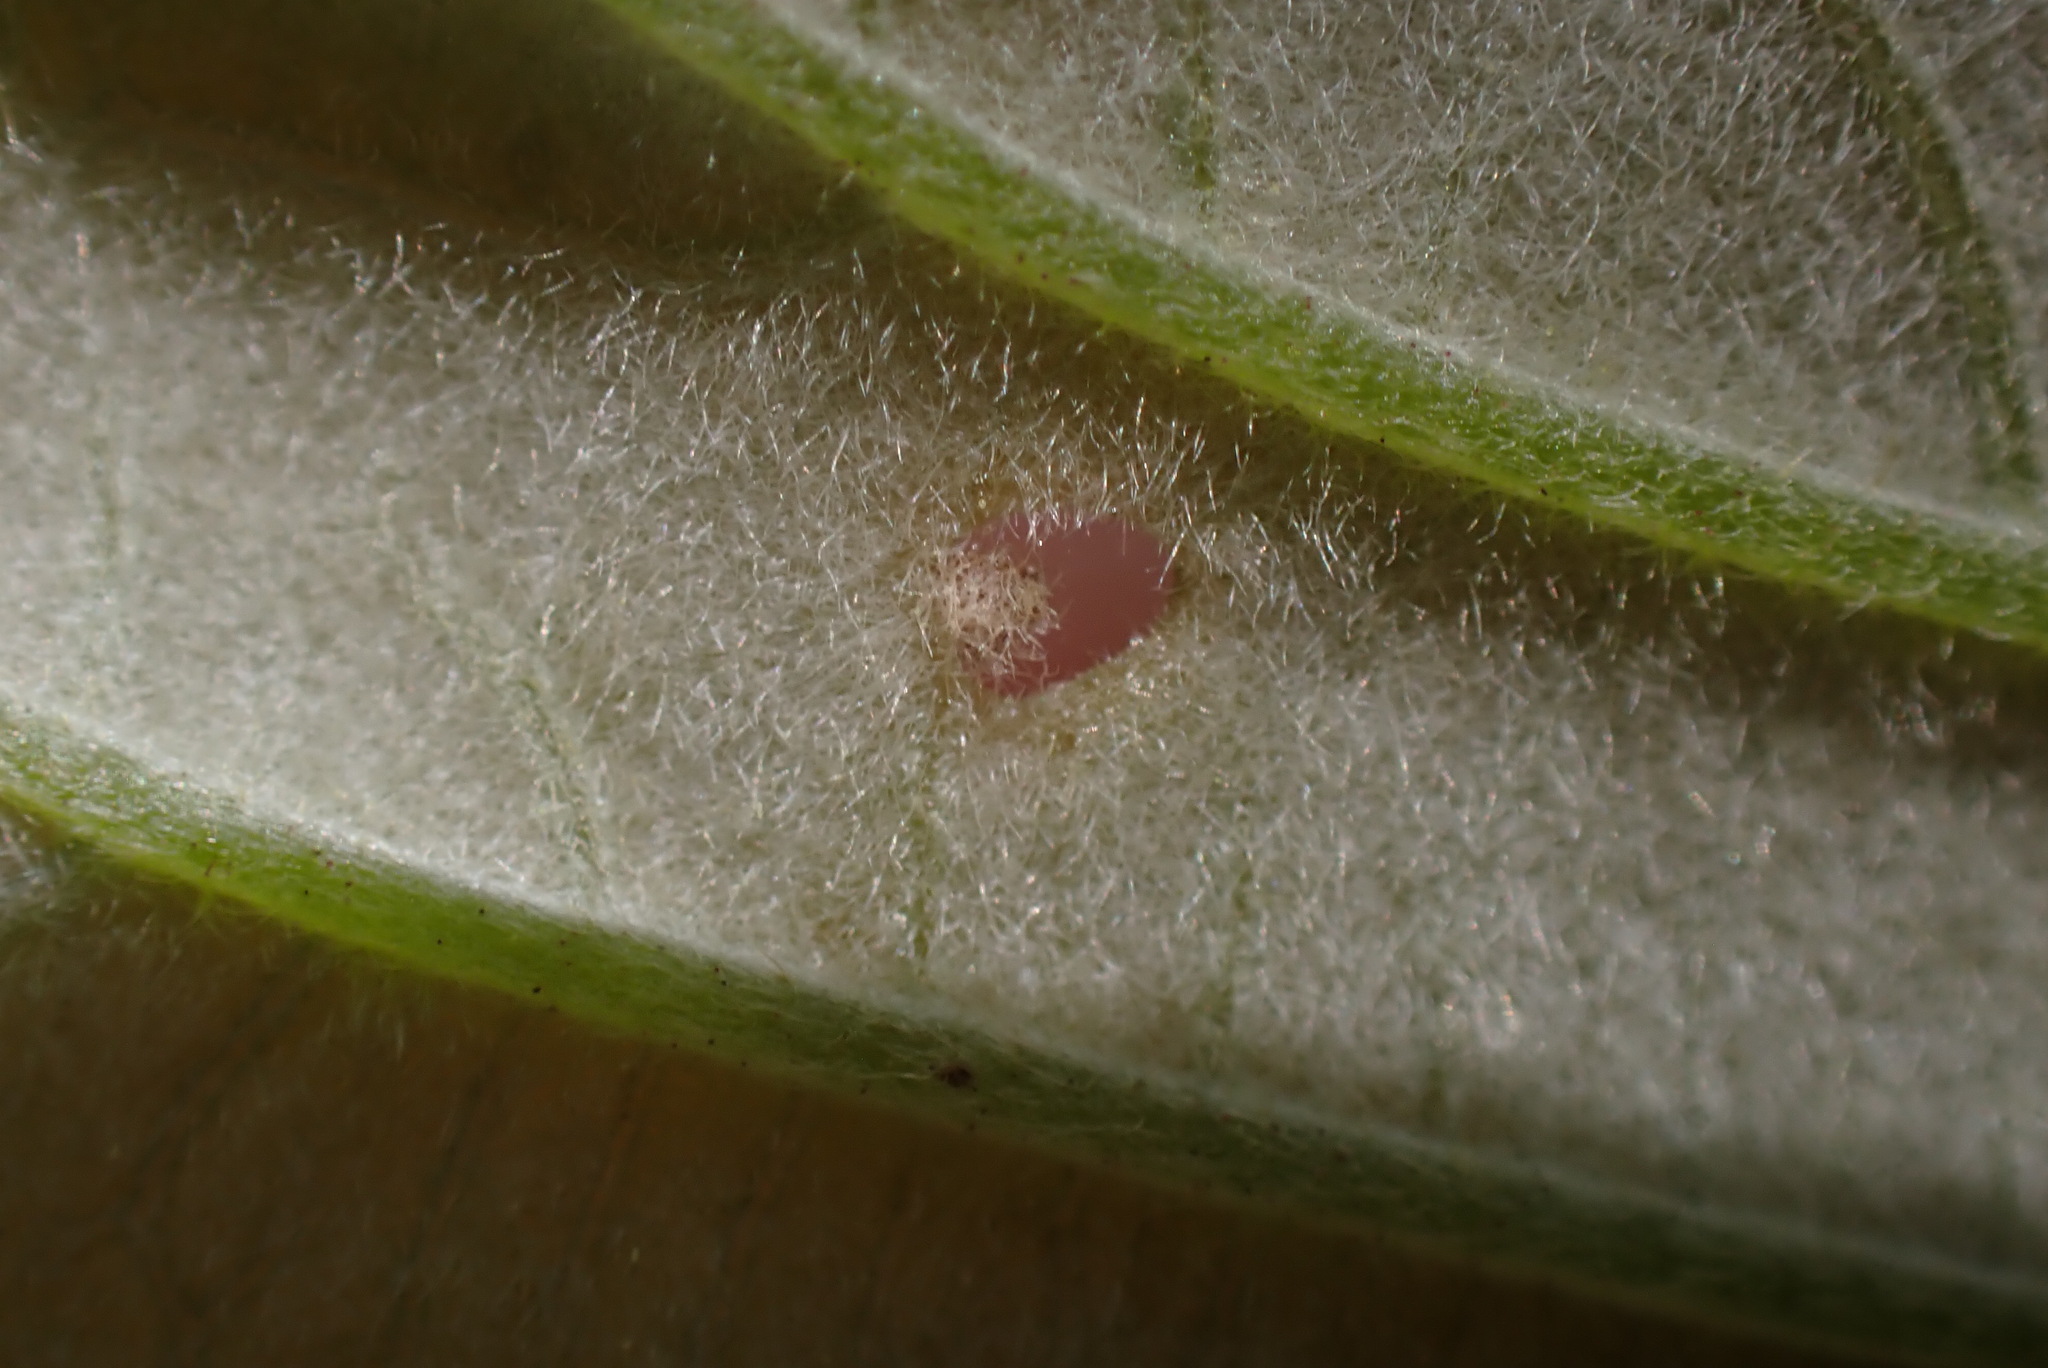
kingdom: Animalia
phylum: Arthropoda
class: Insecta
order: Diptera
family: Agromyzidae
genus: Japanagromyza
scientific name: Japanagromyza viridula
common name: Oak shothole leafminer
